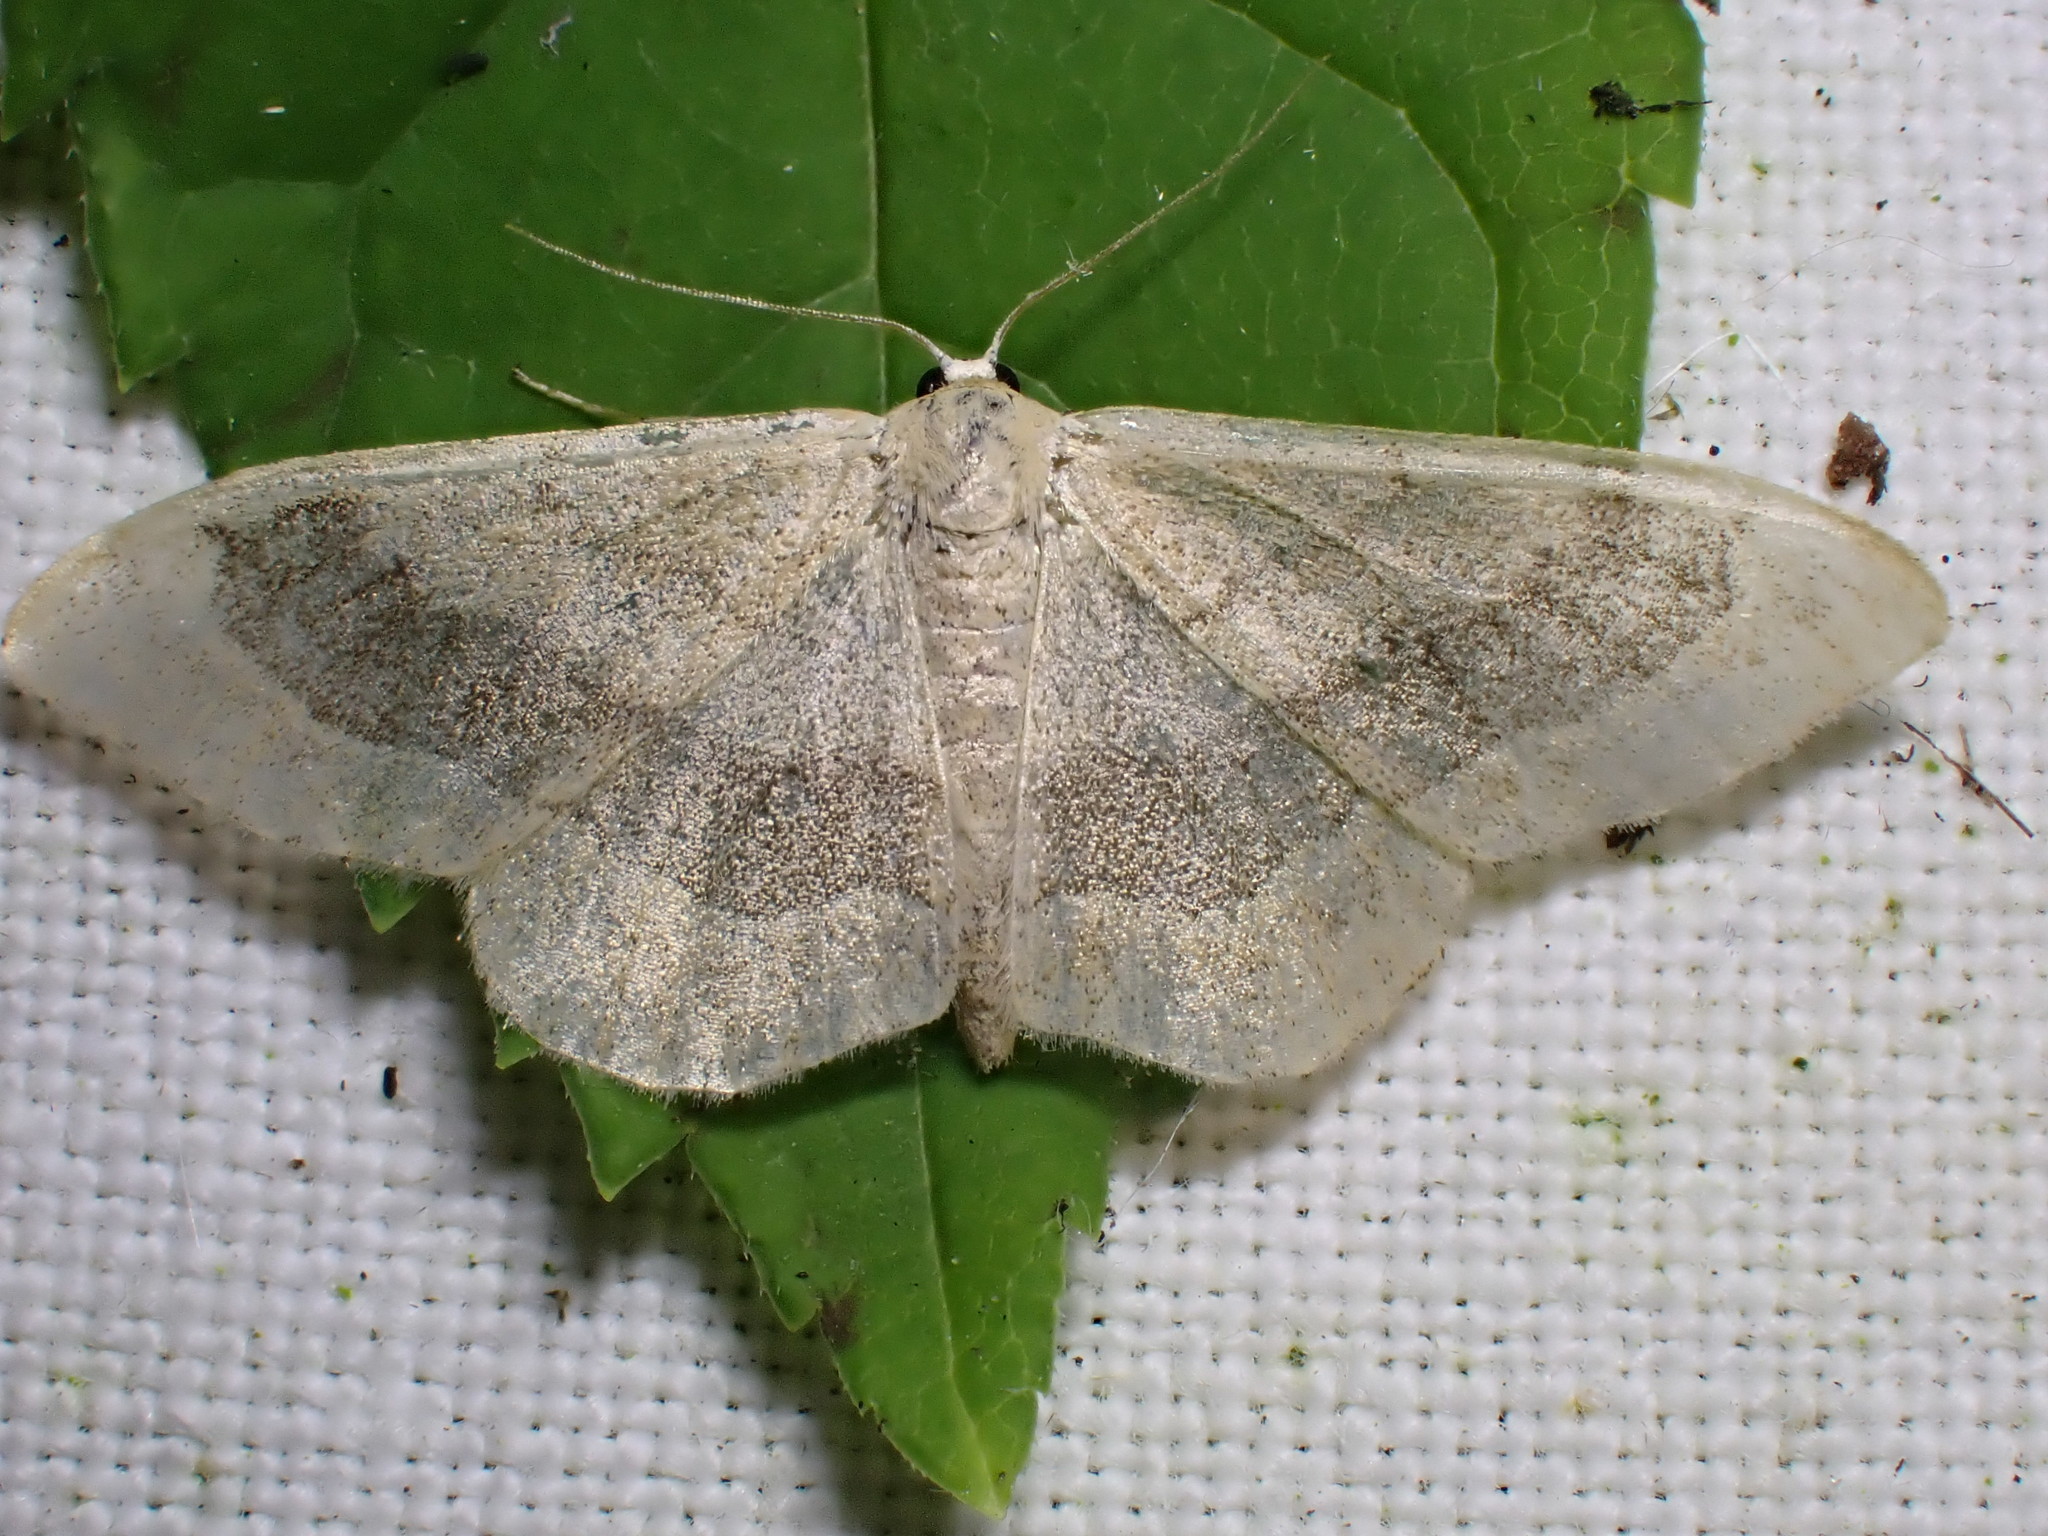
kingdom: Animalia
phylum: Arthropoda
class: Insecta
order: Lepidoptera
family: Geometridae
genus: Idaea
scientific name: Idaea aversata
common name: Riband wave
